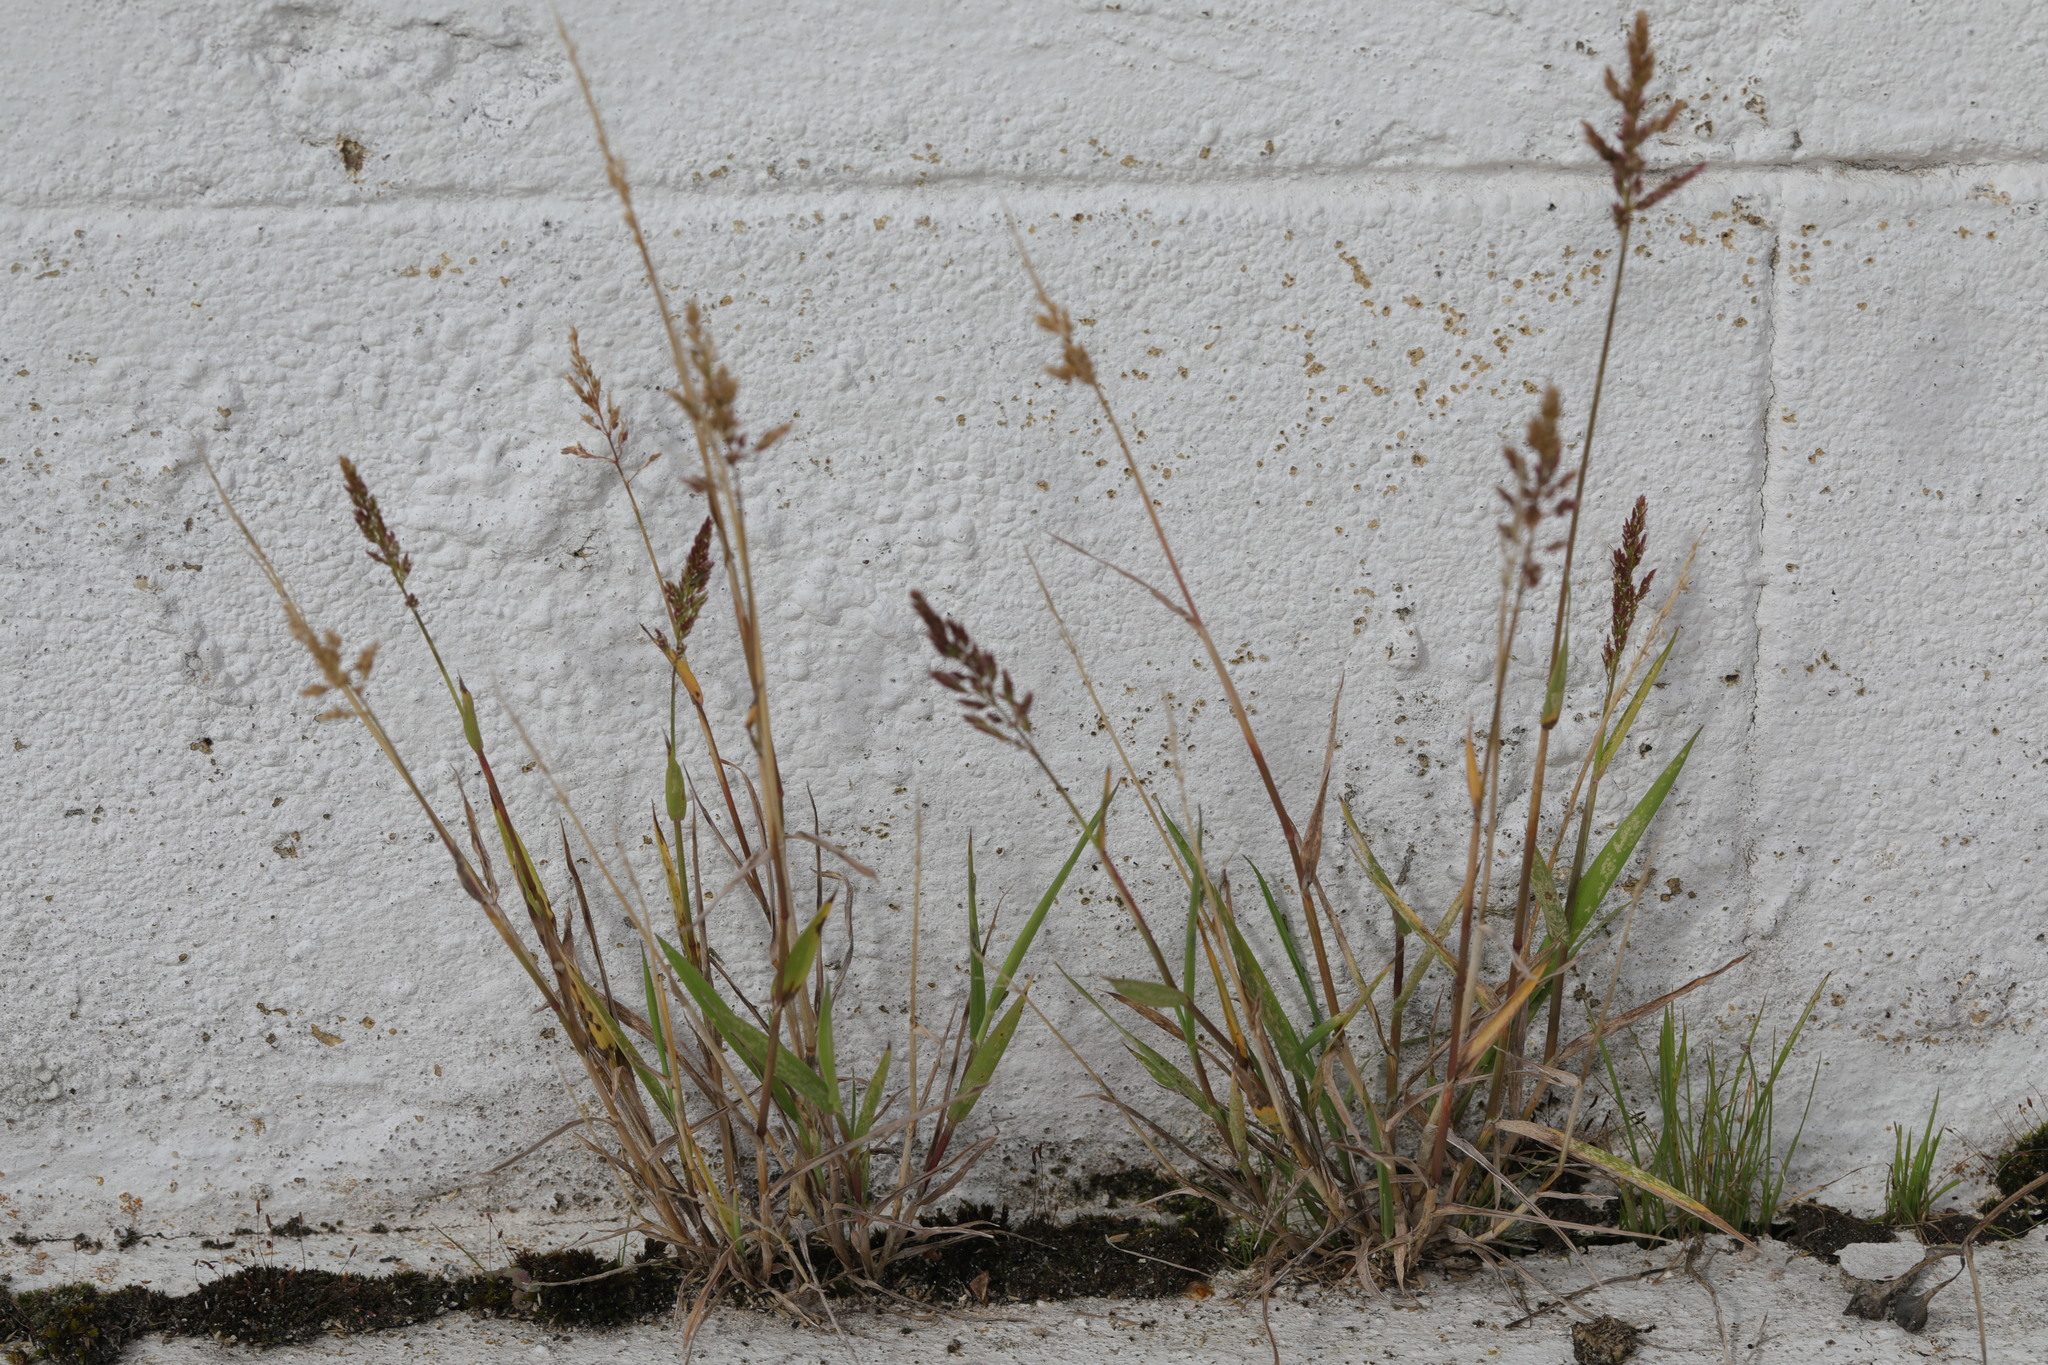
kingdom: Plantae
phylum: Tracheophyta
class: Liliopsida
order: Poales
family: Poaceae
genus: Polypogon
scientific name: Polypogon viridis
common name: Water bent
